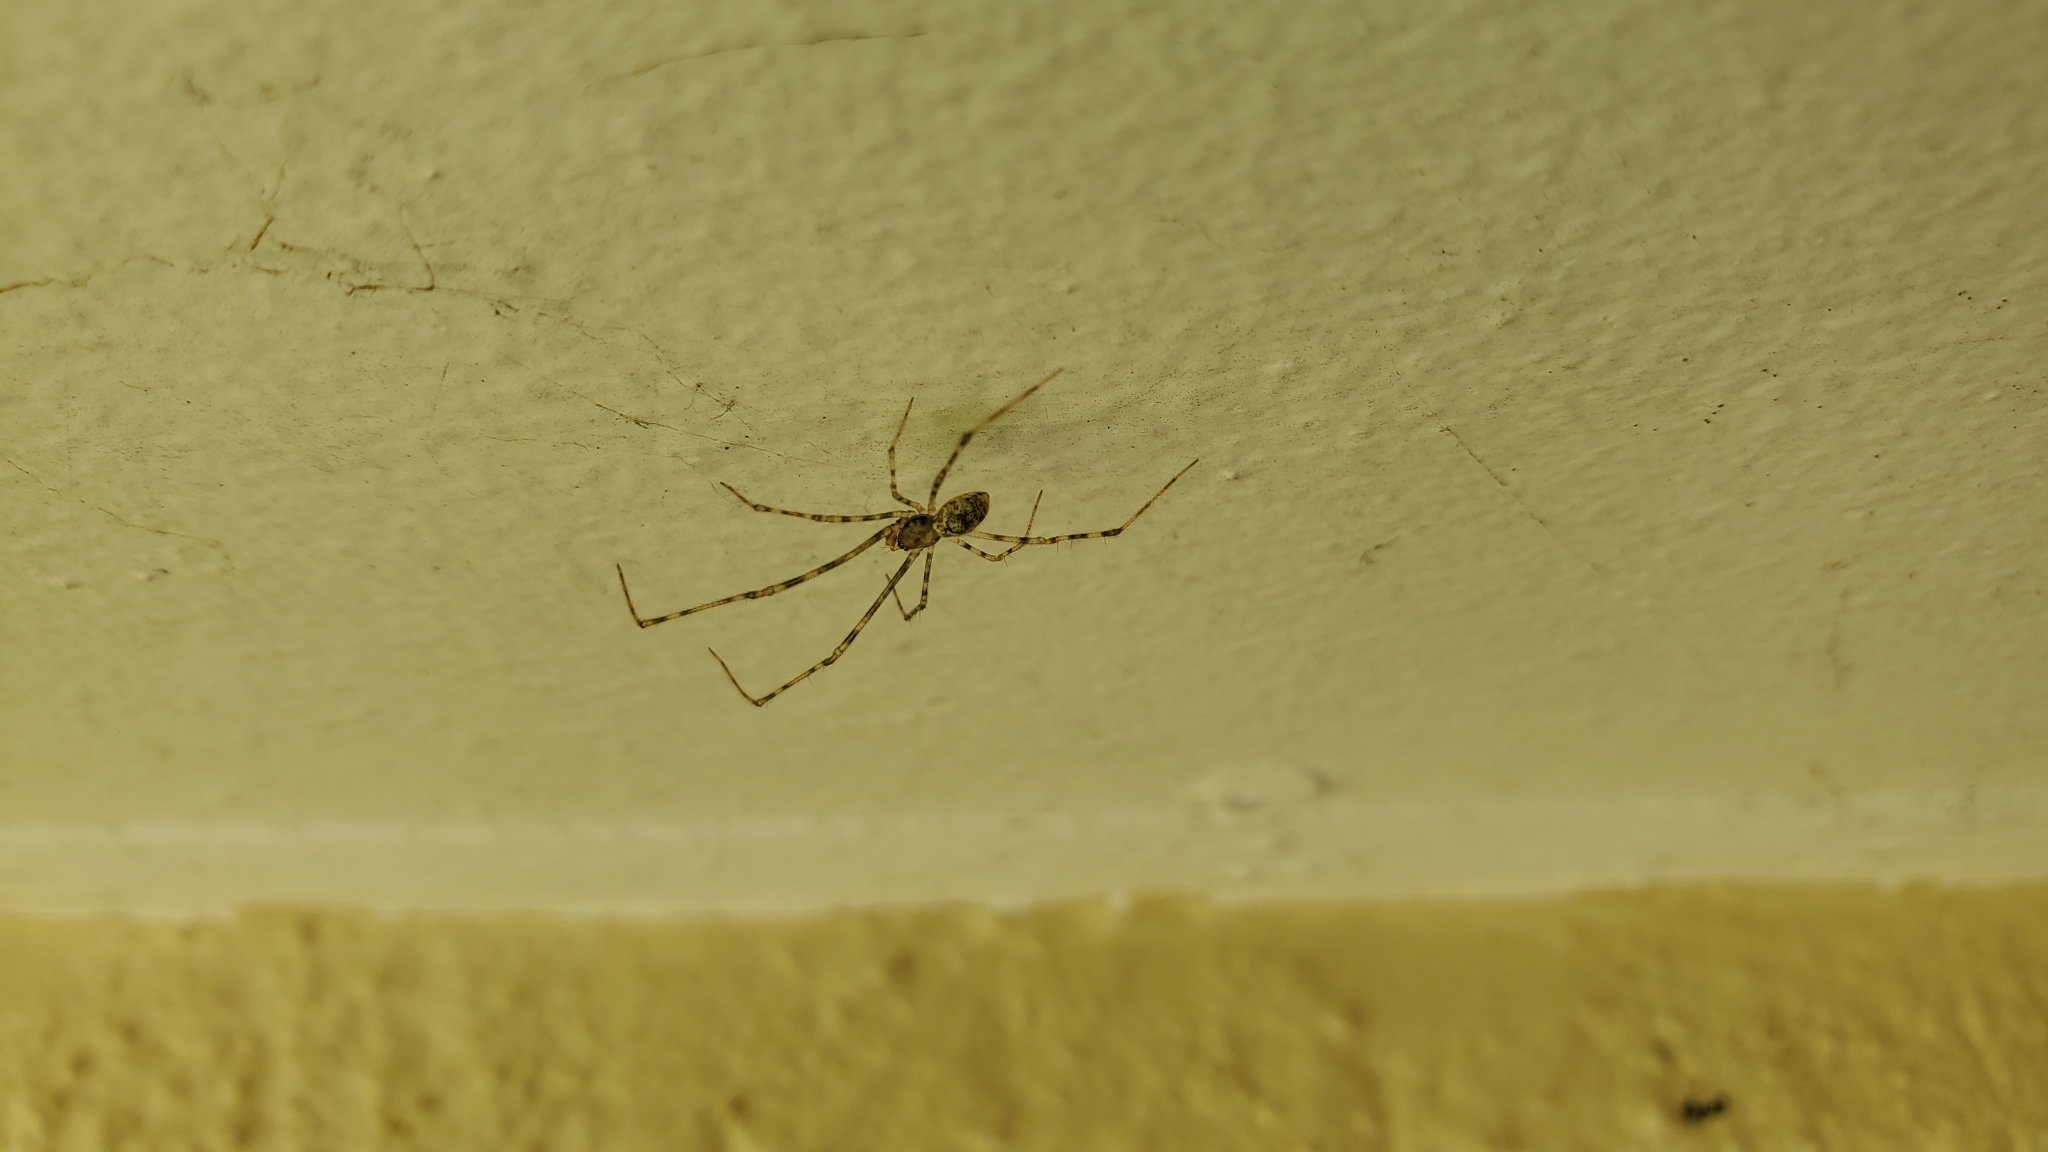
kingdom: Animalia
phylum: Arthropoda
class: Arachnida
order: Araneae
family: Theridiidae
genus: Cryptachaea
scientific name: Cryptachaea gigantipes
